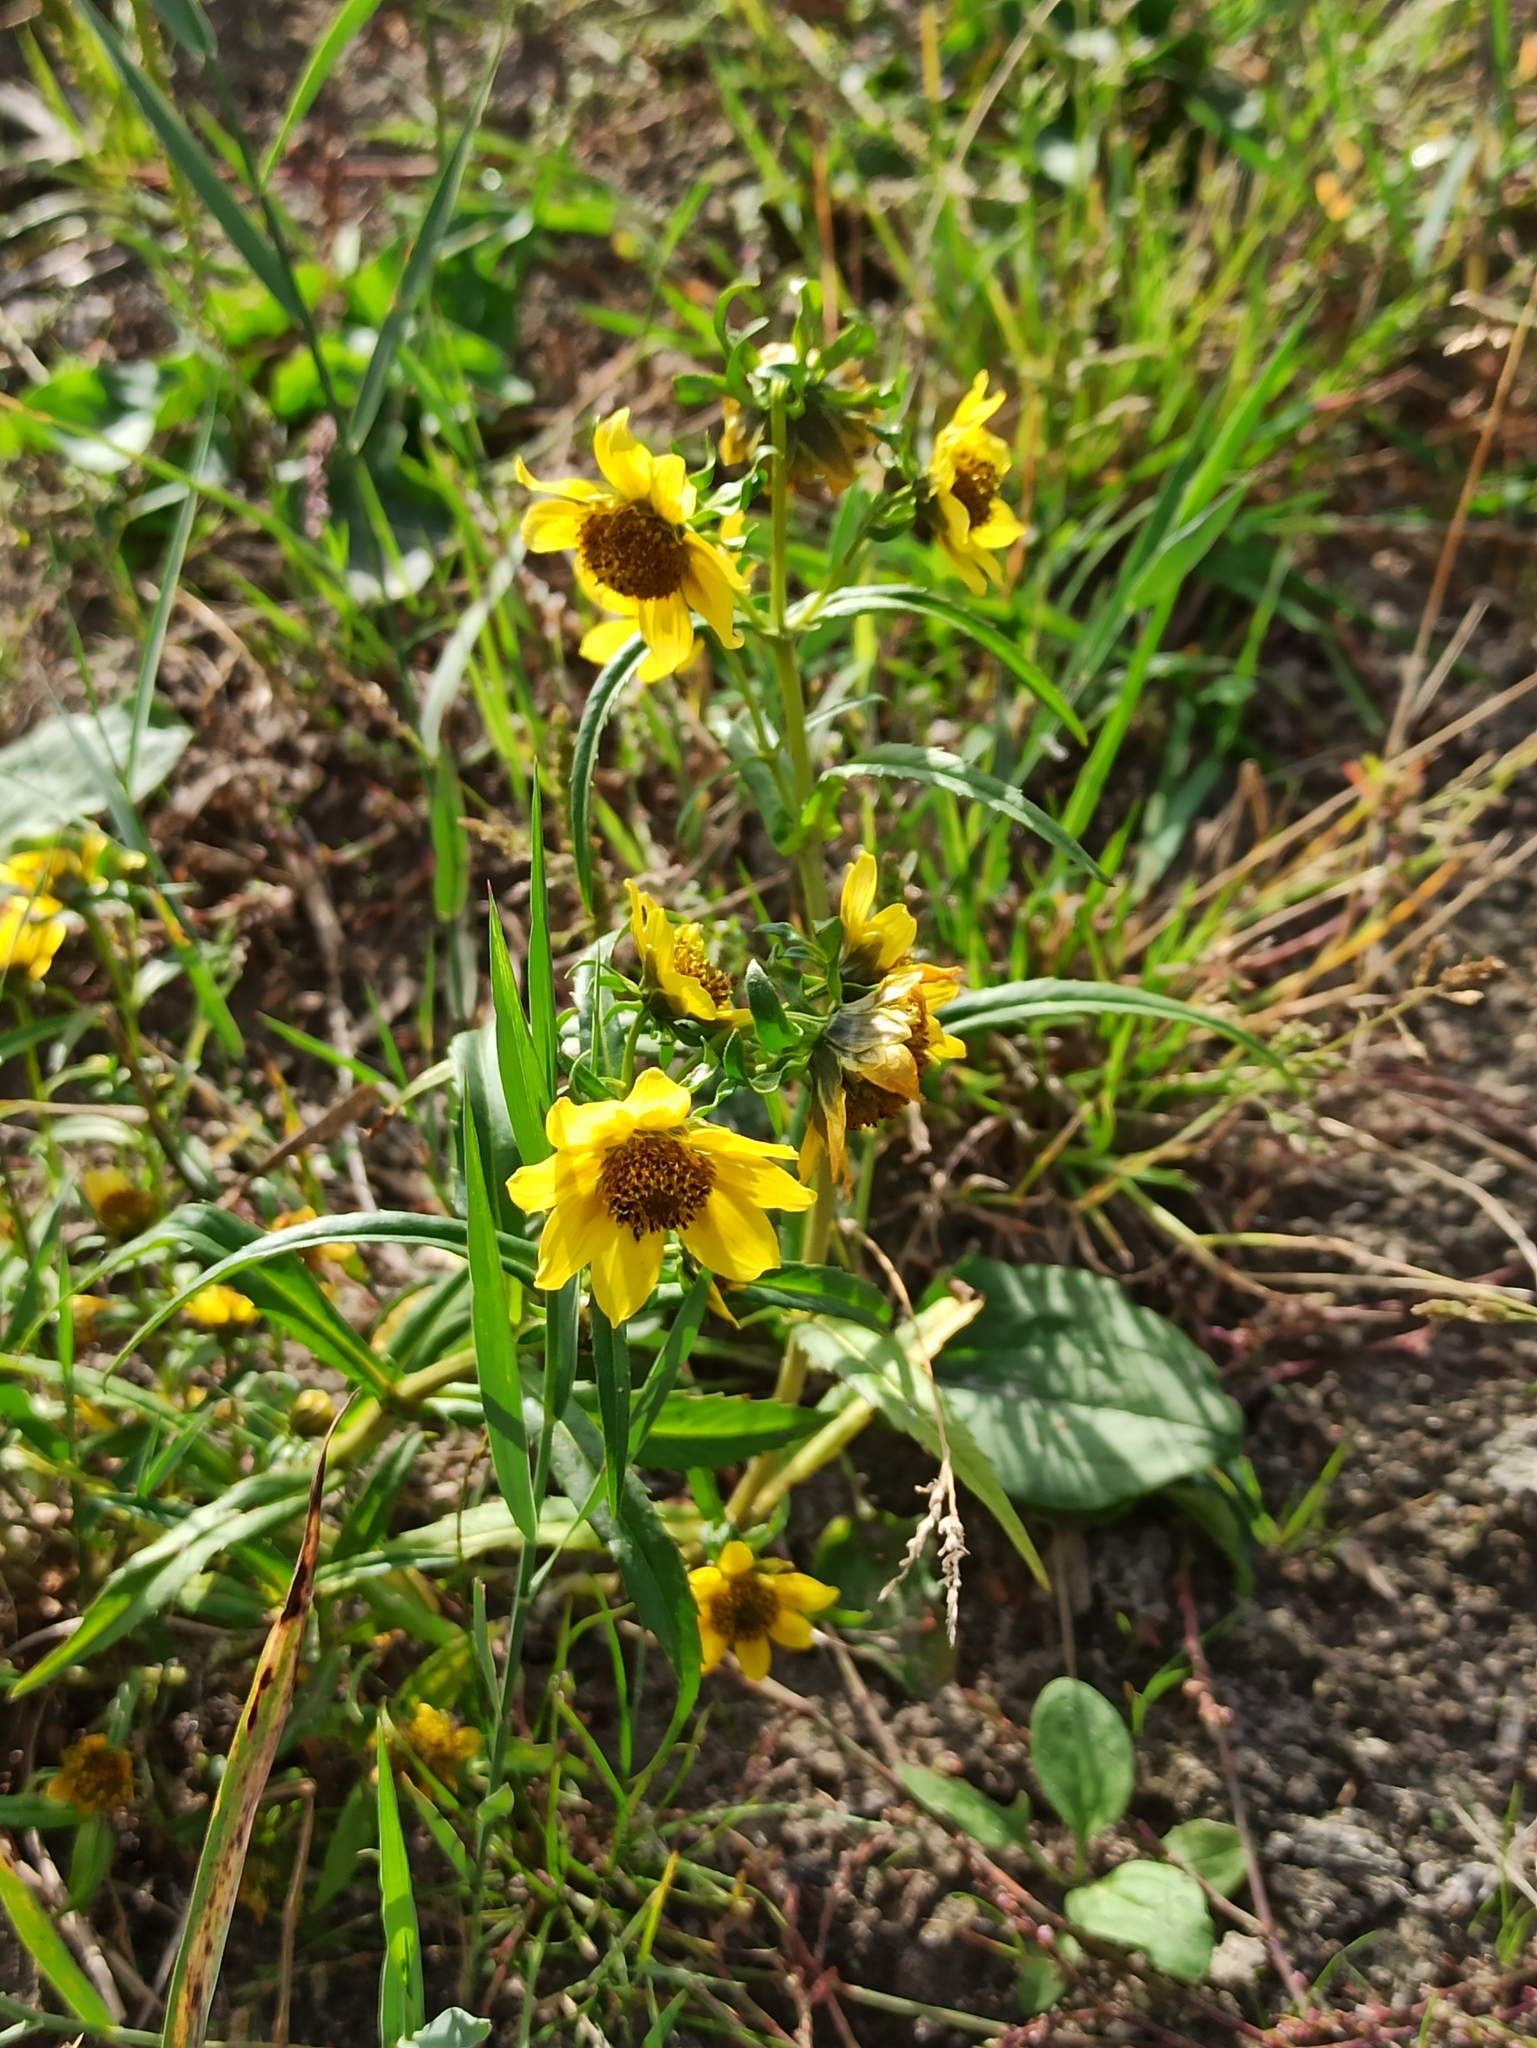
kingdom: Plantae
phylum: Tracheophyta
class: Magnoliopsida
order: Asterales
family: Asteraceae
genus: Bidens
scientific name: Bidens cernua
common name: Nodding bur-marigold
